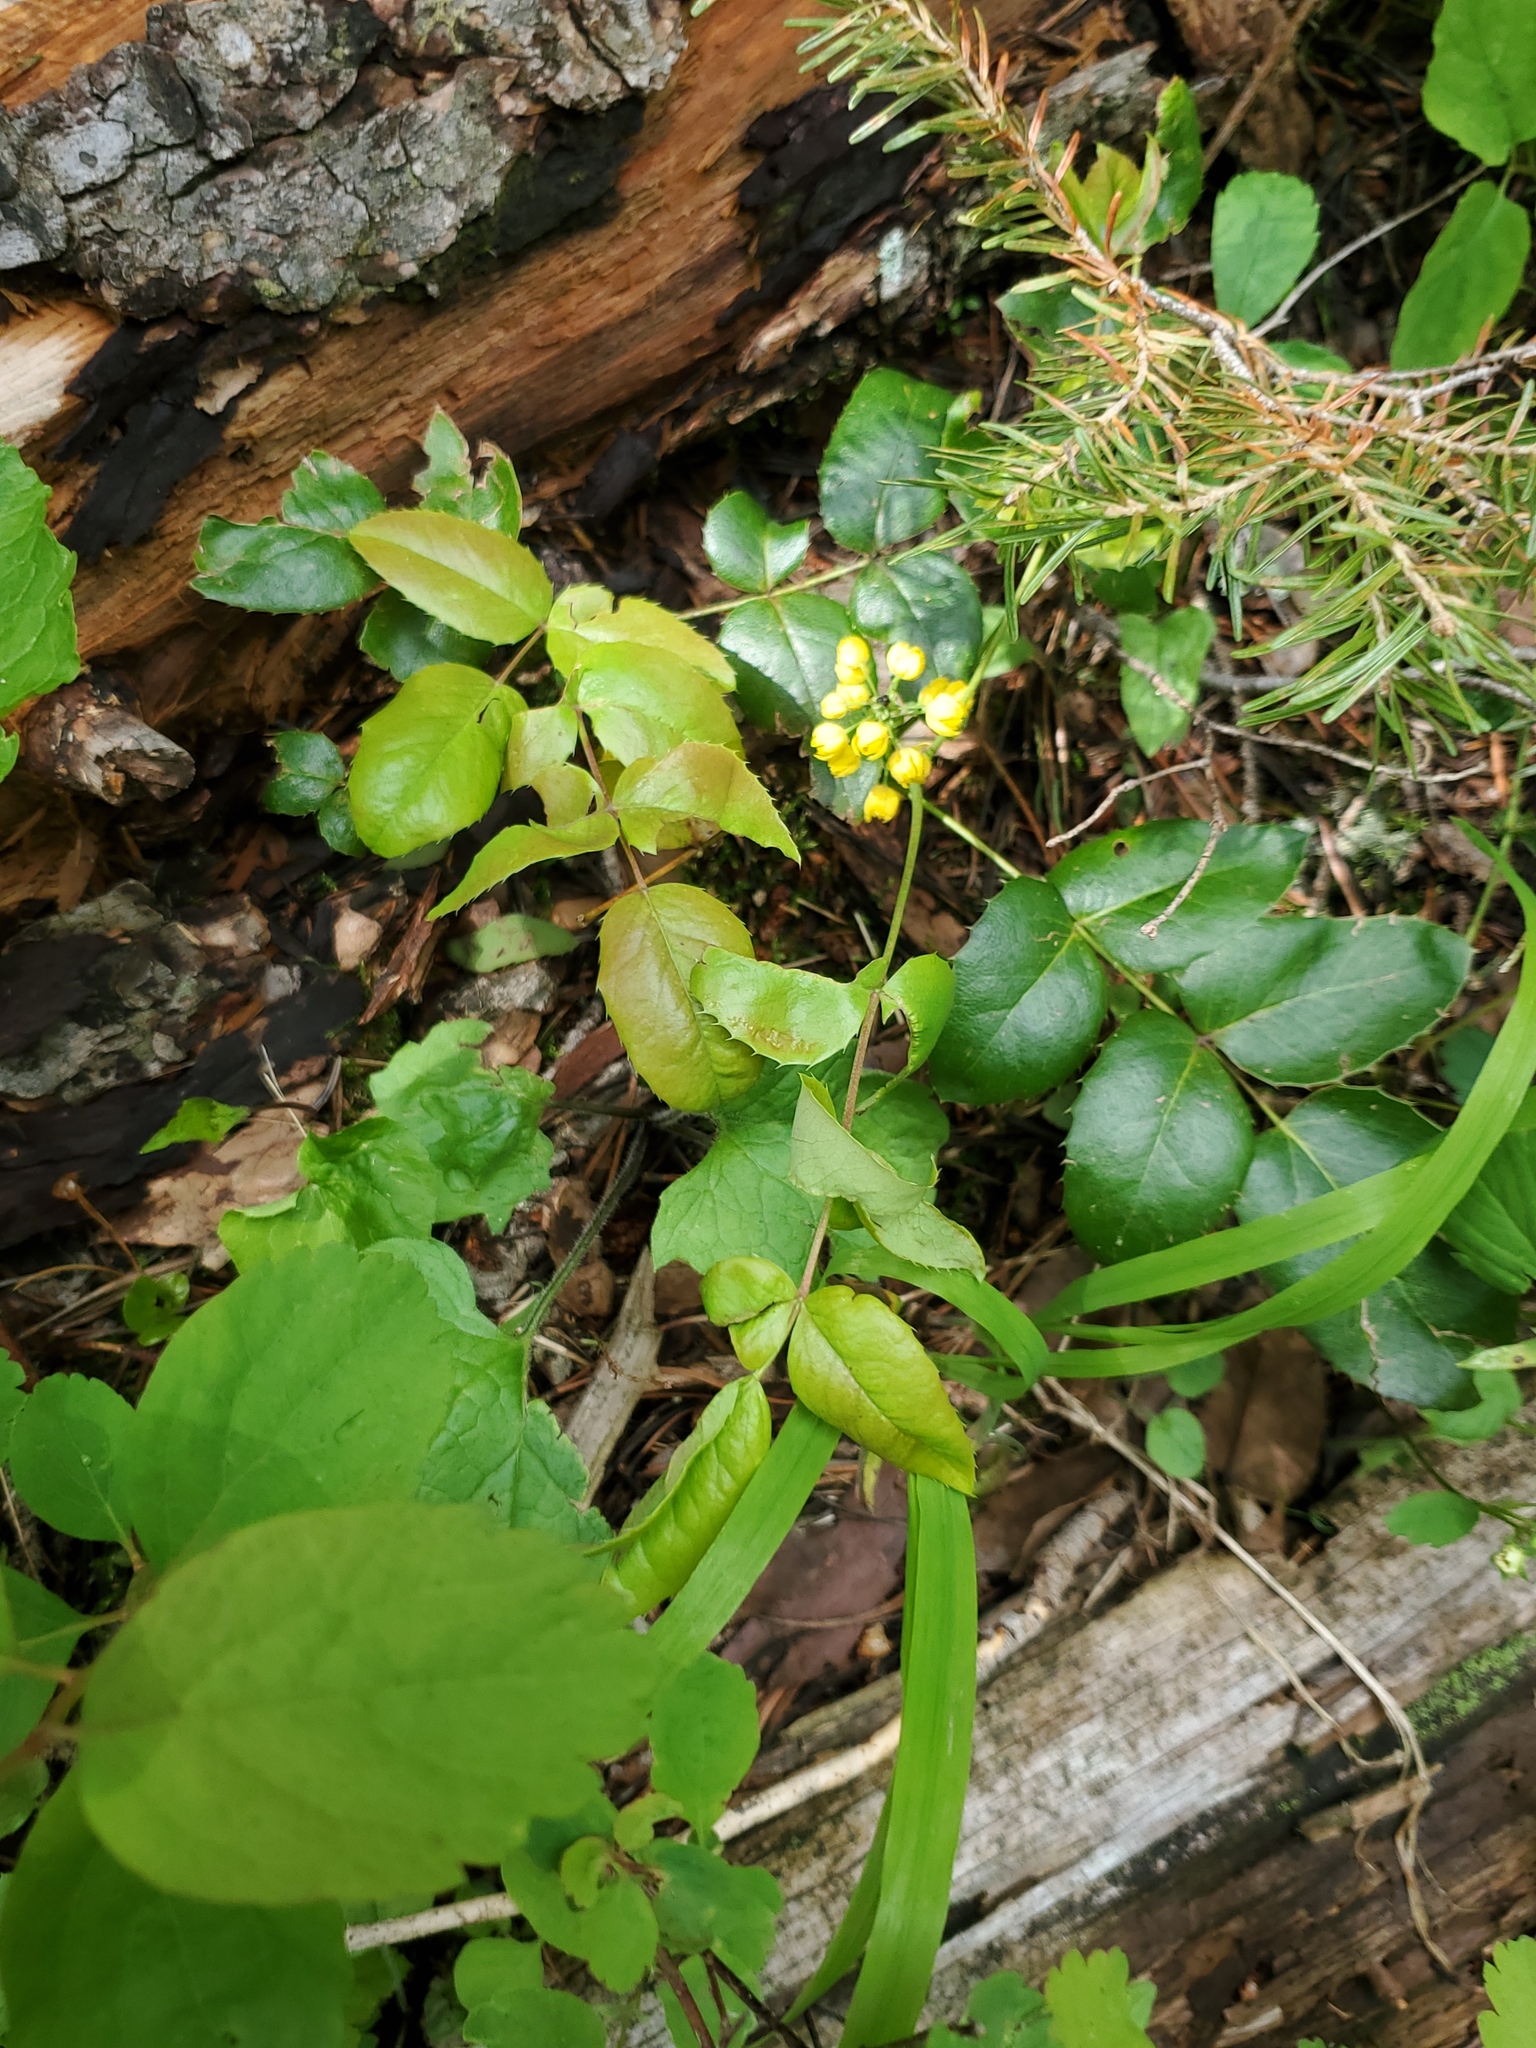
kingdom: Plantae
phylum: Tracheophyta
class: Magnoliopsida
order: Ranunculales
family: Berberidaceae
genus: Mahonia
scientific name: Mahonia repens
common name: Creeping oregon-grape
